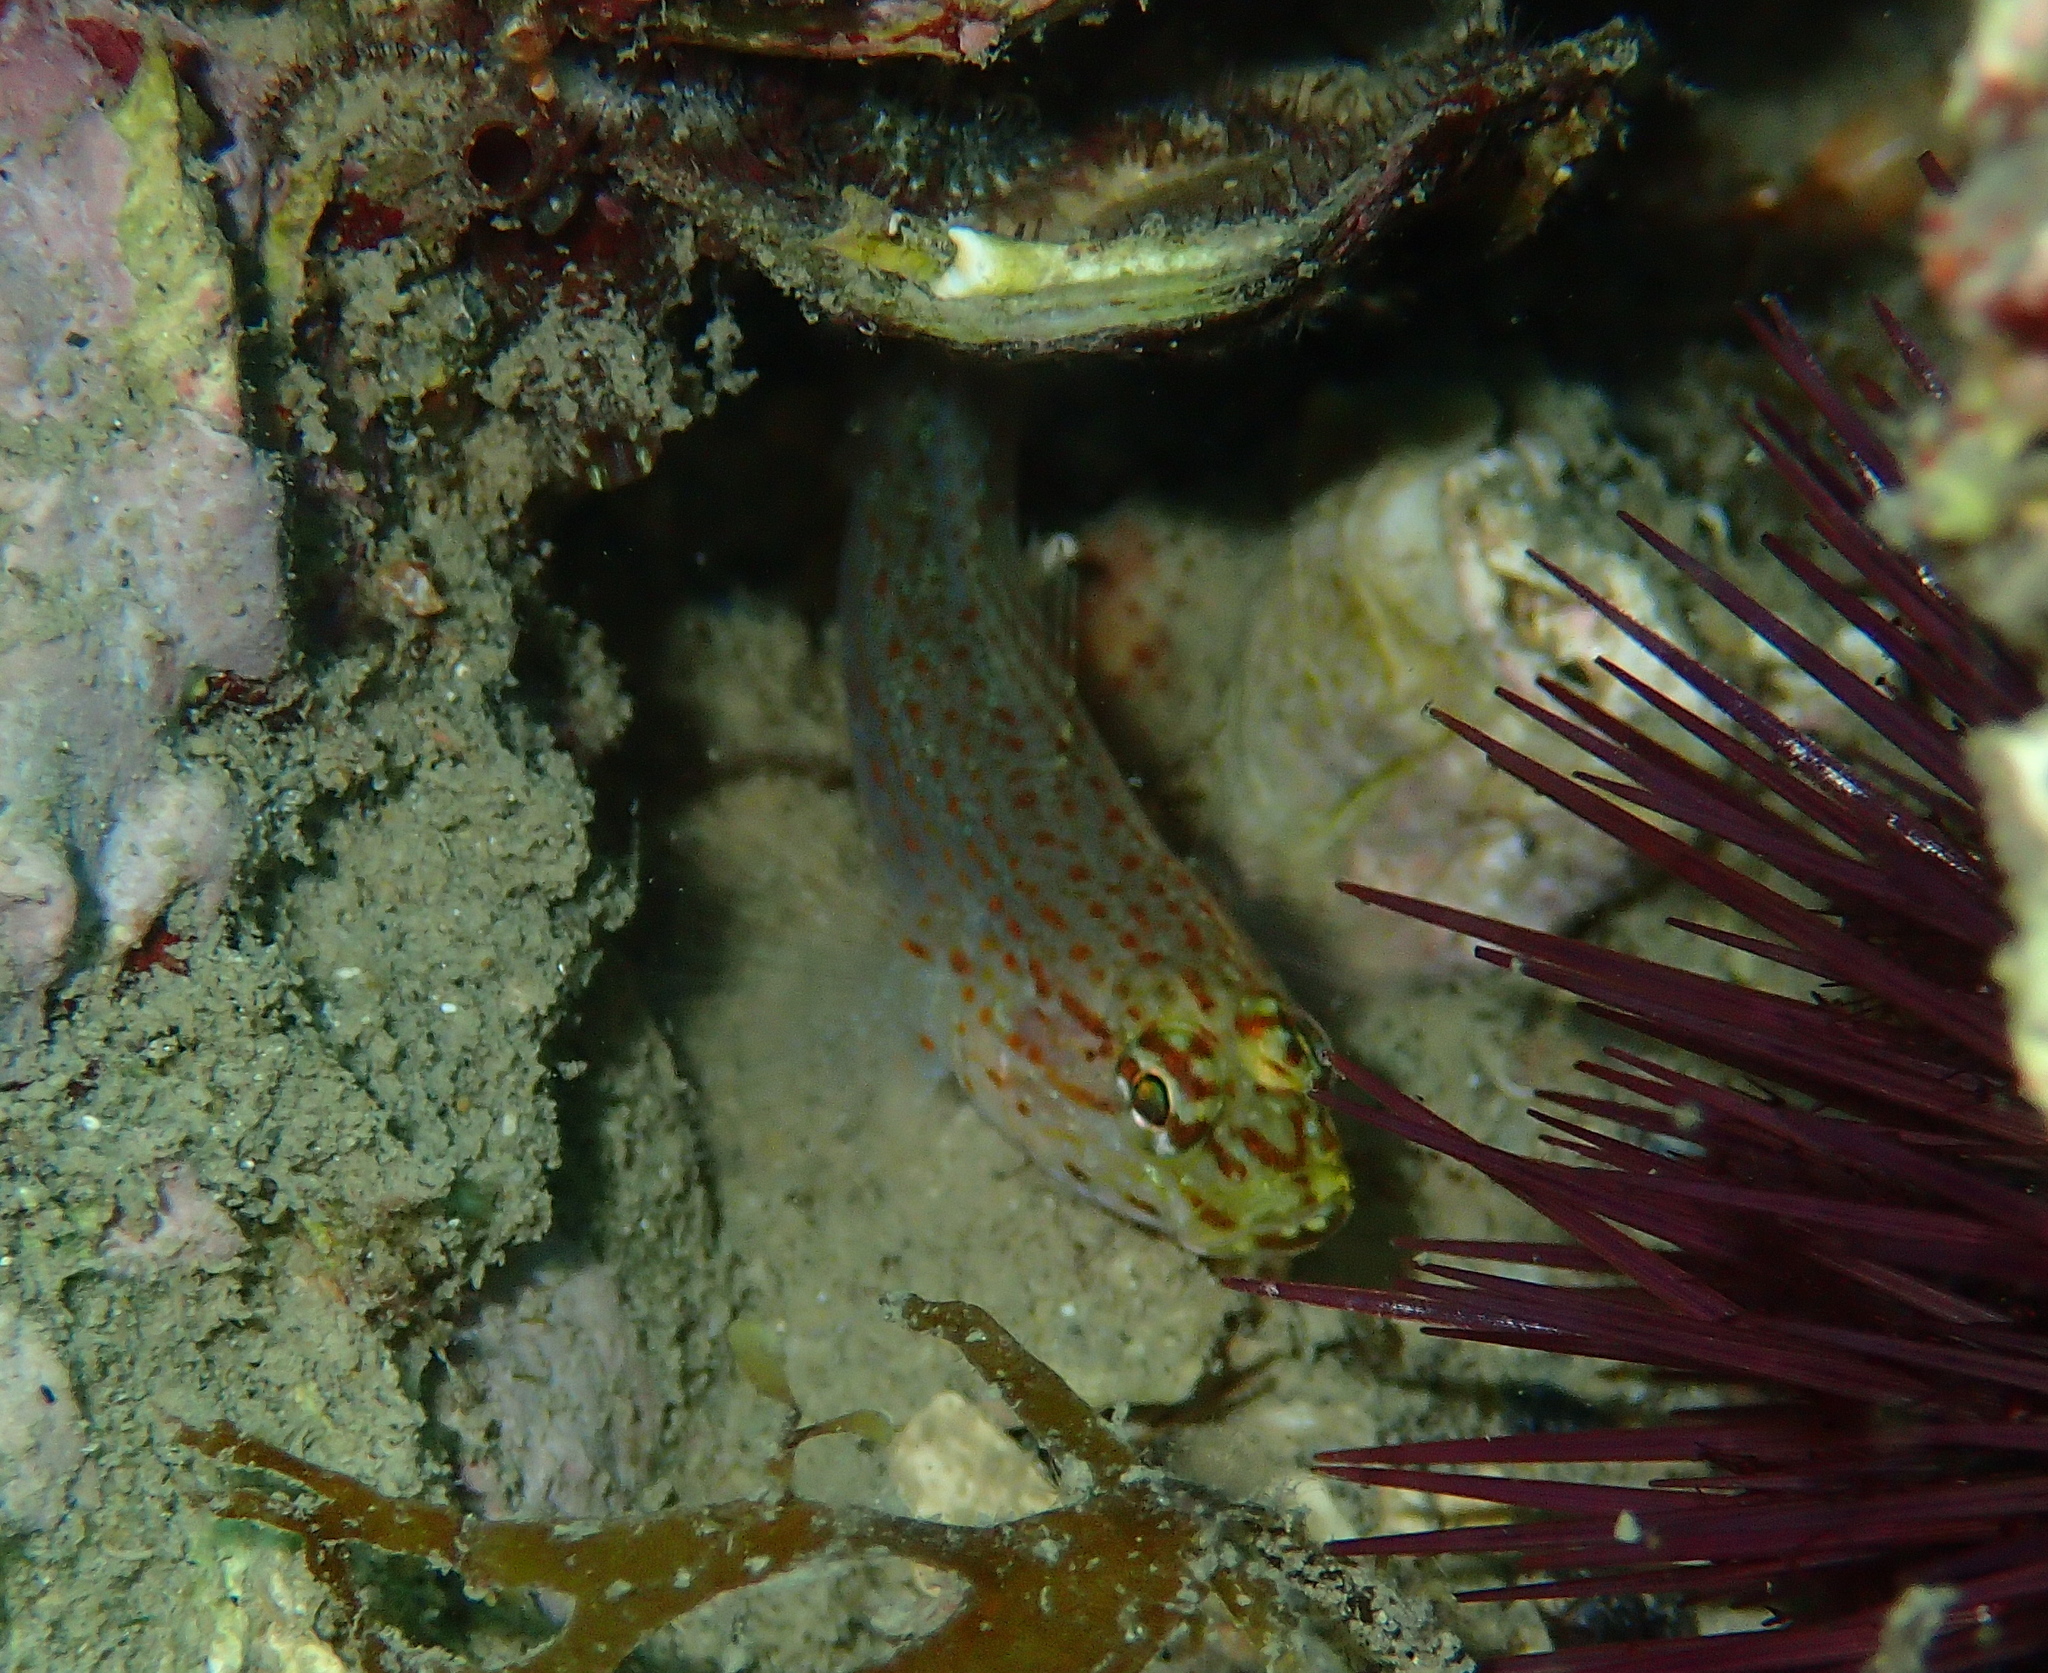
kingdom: Animalia
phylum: Chordata
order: Perciformes
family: Gobiidae
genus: Gobius
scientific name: Gobius xanthocephalus
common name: Golden goby
